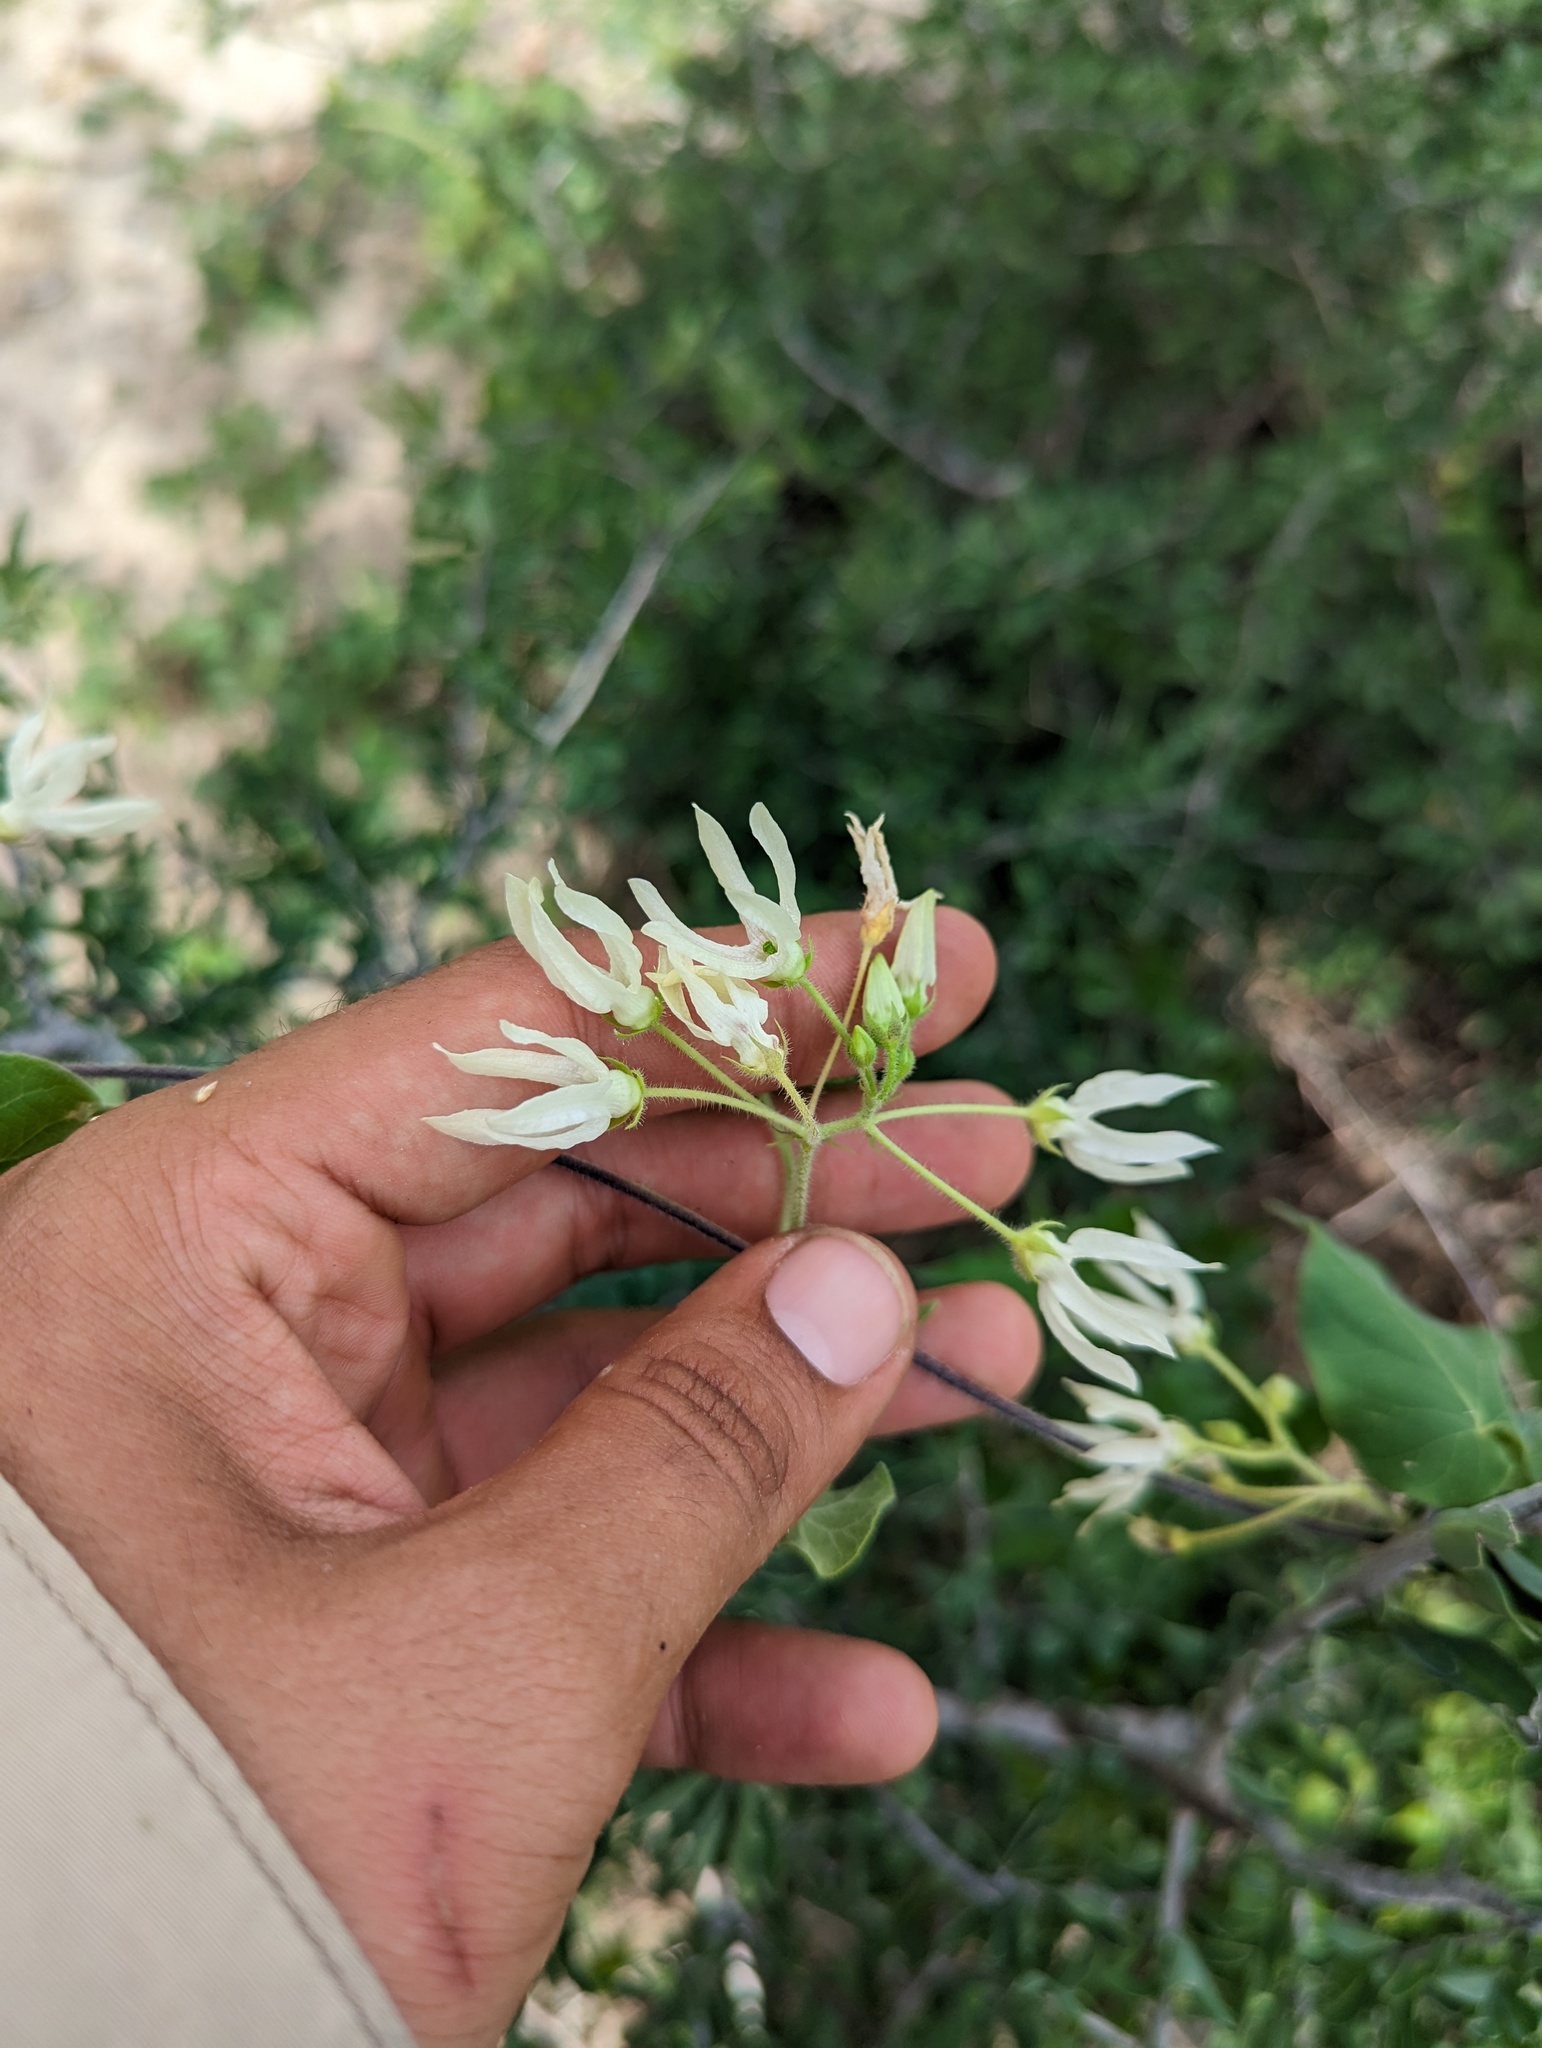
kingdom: Plantae
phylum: Tracheophyta
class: Magnoliopsida
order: Gentianales
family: Apocynaceae
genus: Polystemma
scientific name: Polystemma cordifolium
